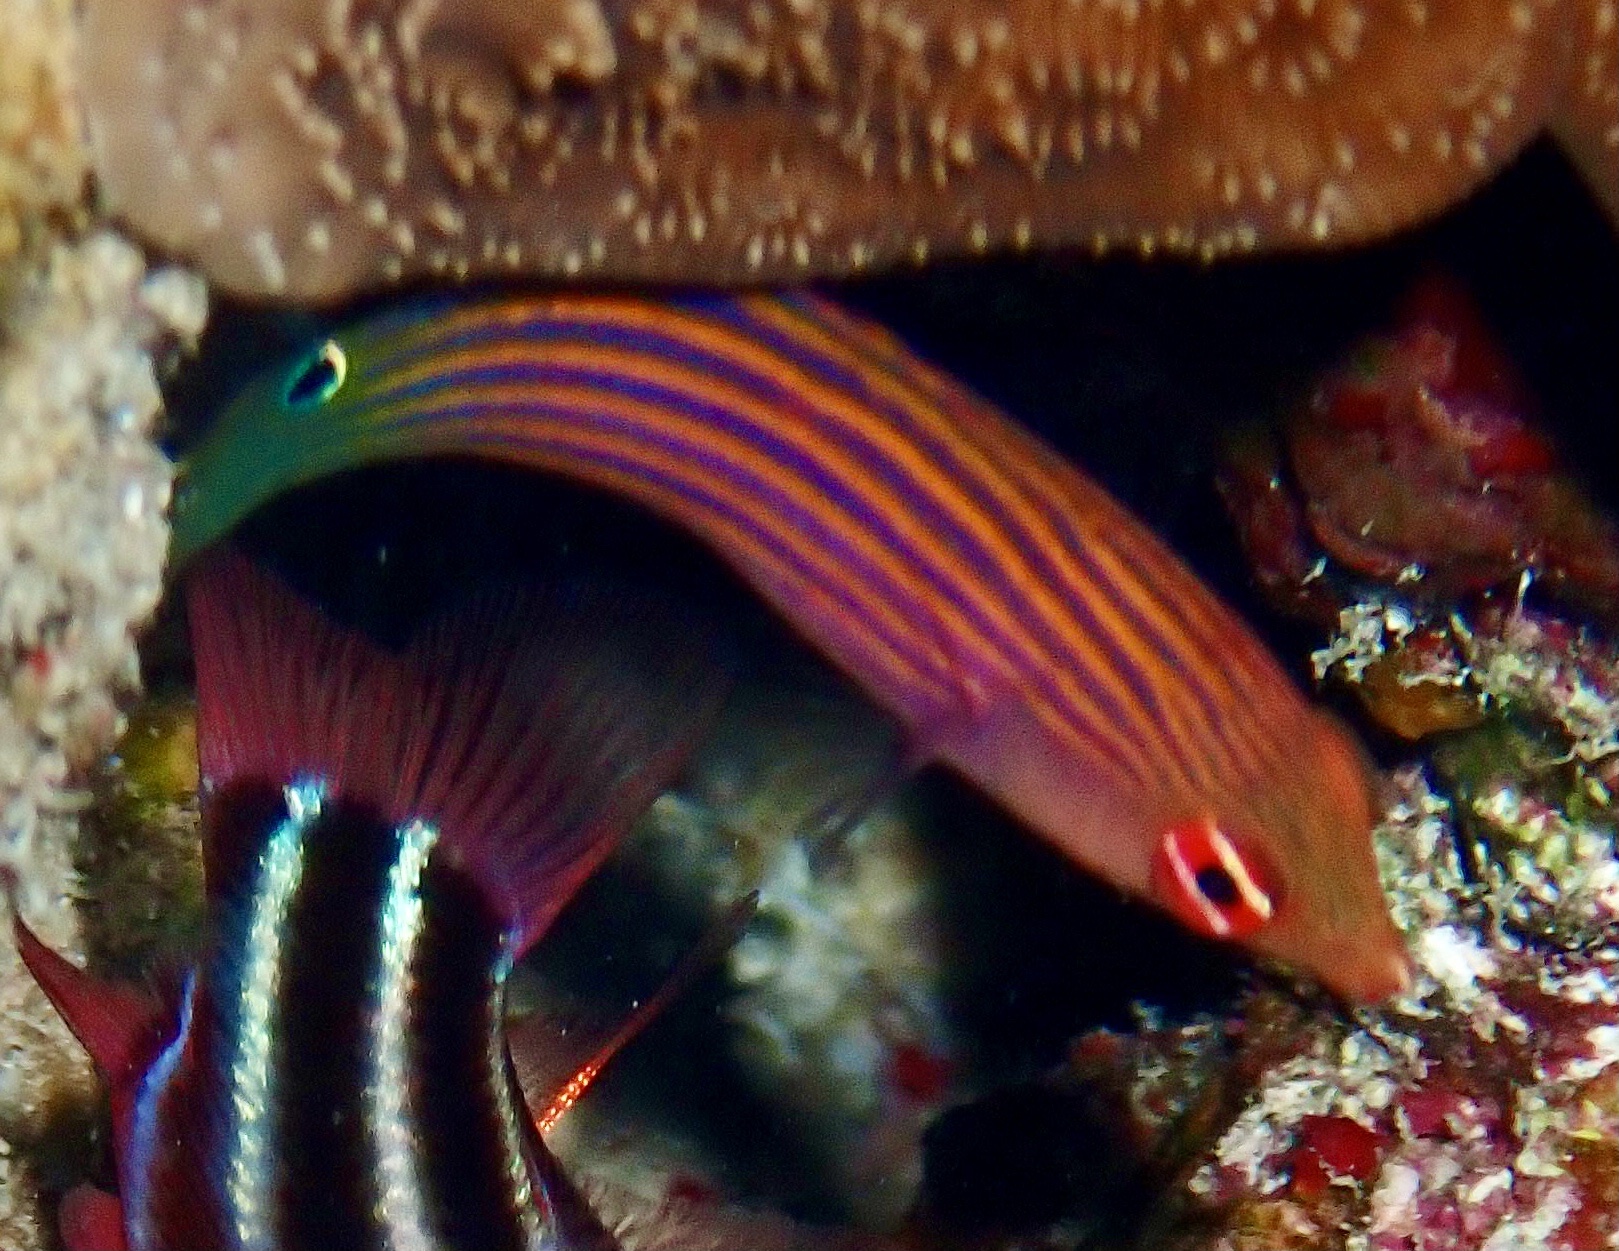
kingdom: Animalia
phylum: Chordata
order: Perciformes
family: Labridae
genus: Pseudocheilinus
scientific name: Pseudocheilinus hexataenia
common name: Sixline wrasse
